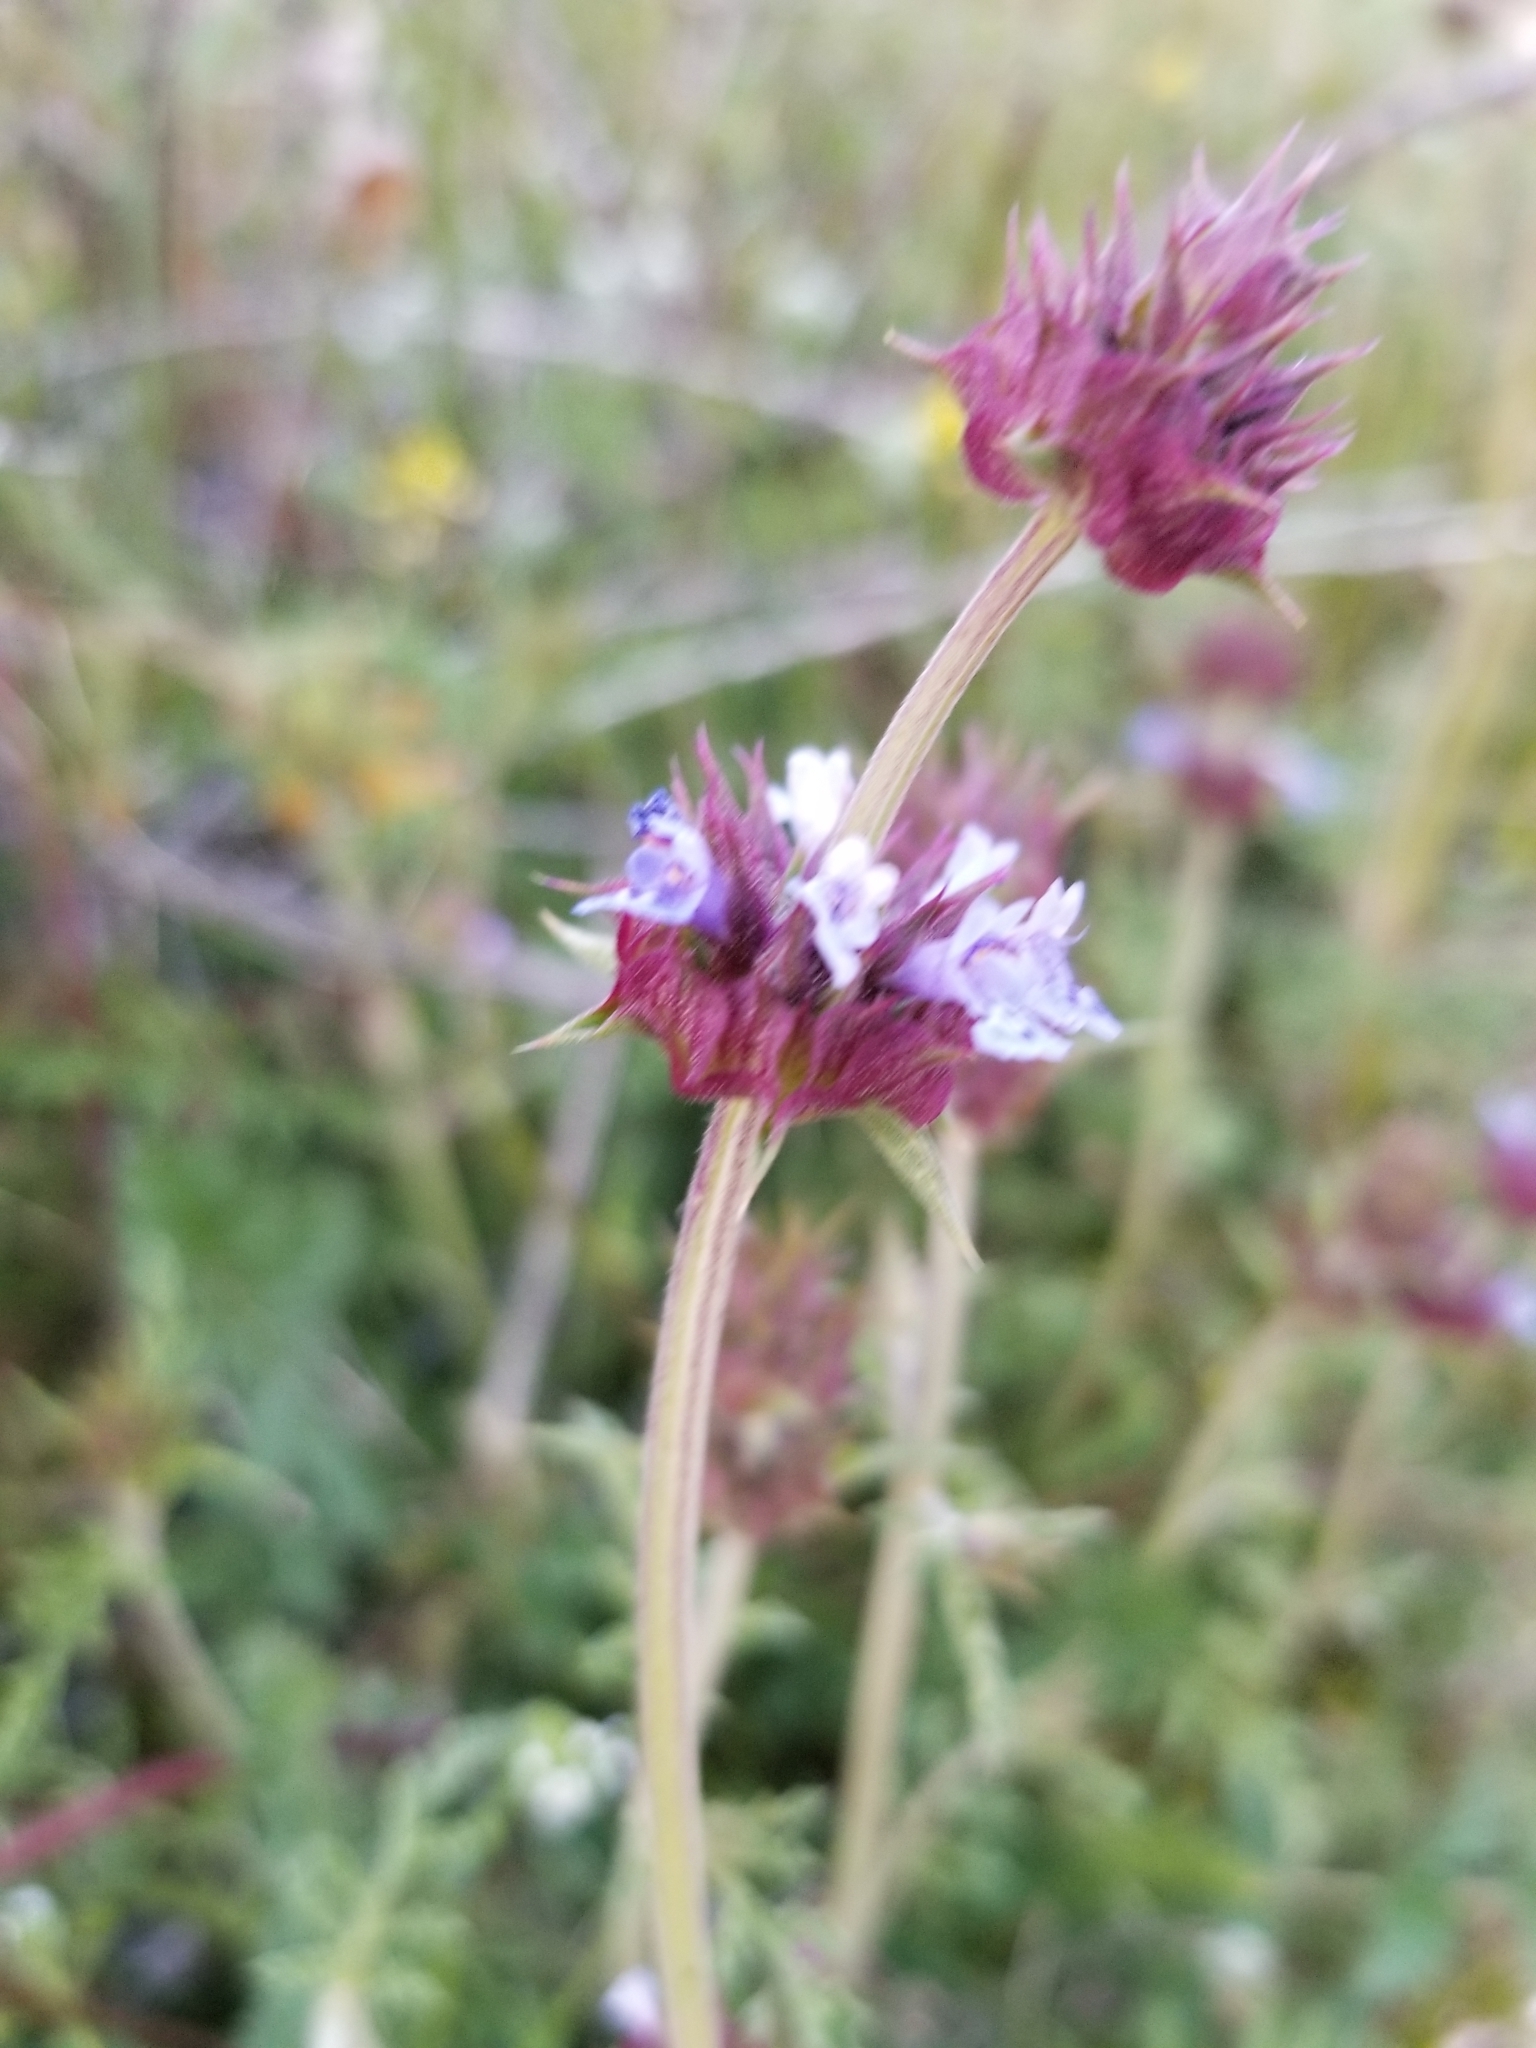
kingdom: Plantae
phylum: Tracheophyta
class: Magnoliopsida
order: Lamiales
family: Lamiaceae
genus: Salvia
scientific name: Salvia columbariae
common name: Chia
